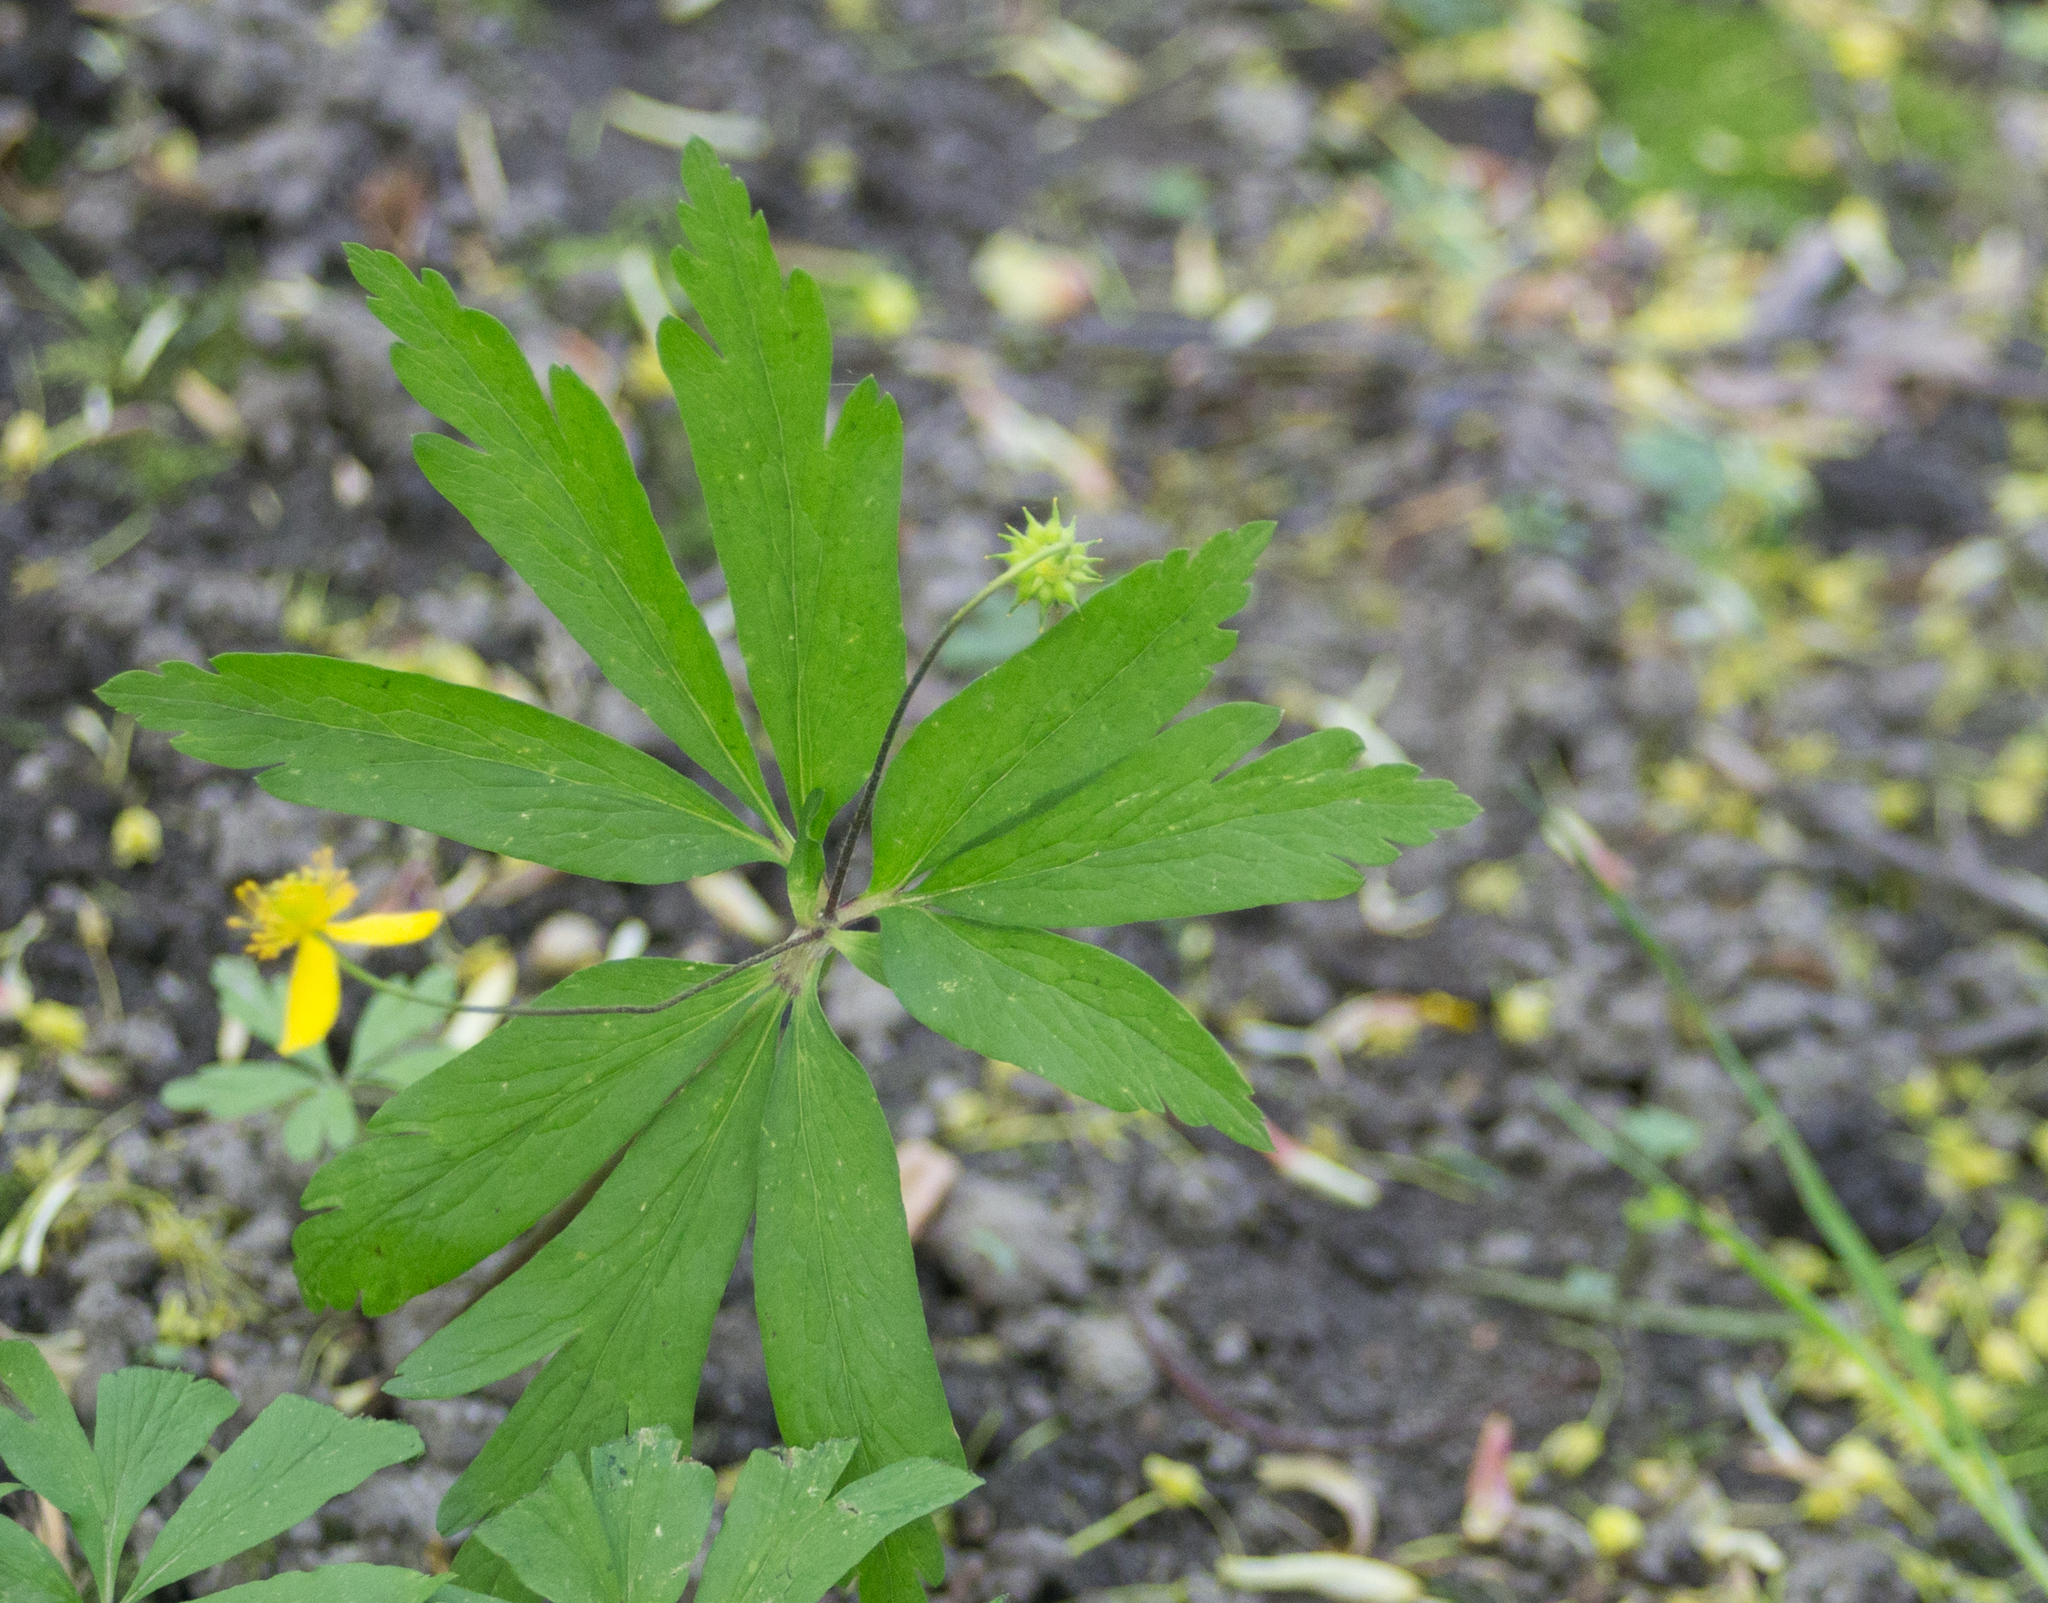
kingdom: Plantae
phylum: Tracheophyta
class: Magnoliopsida
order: Ranunculales
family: Ranunculaceae
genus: Anemone
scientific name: Anemone ranunculoides
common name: Yellow anemone
